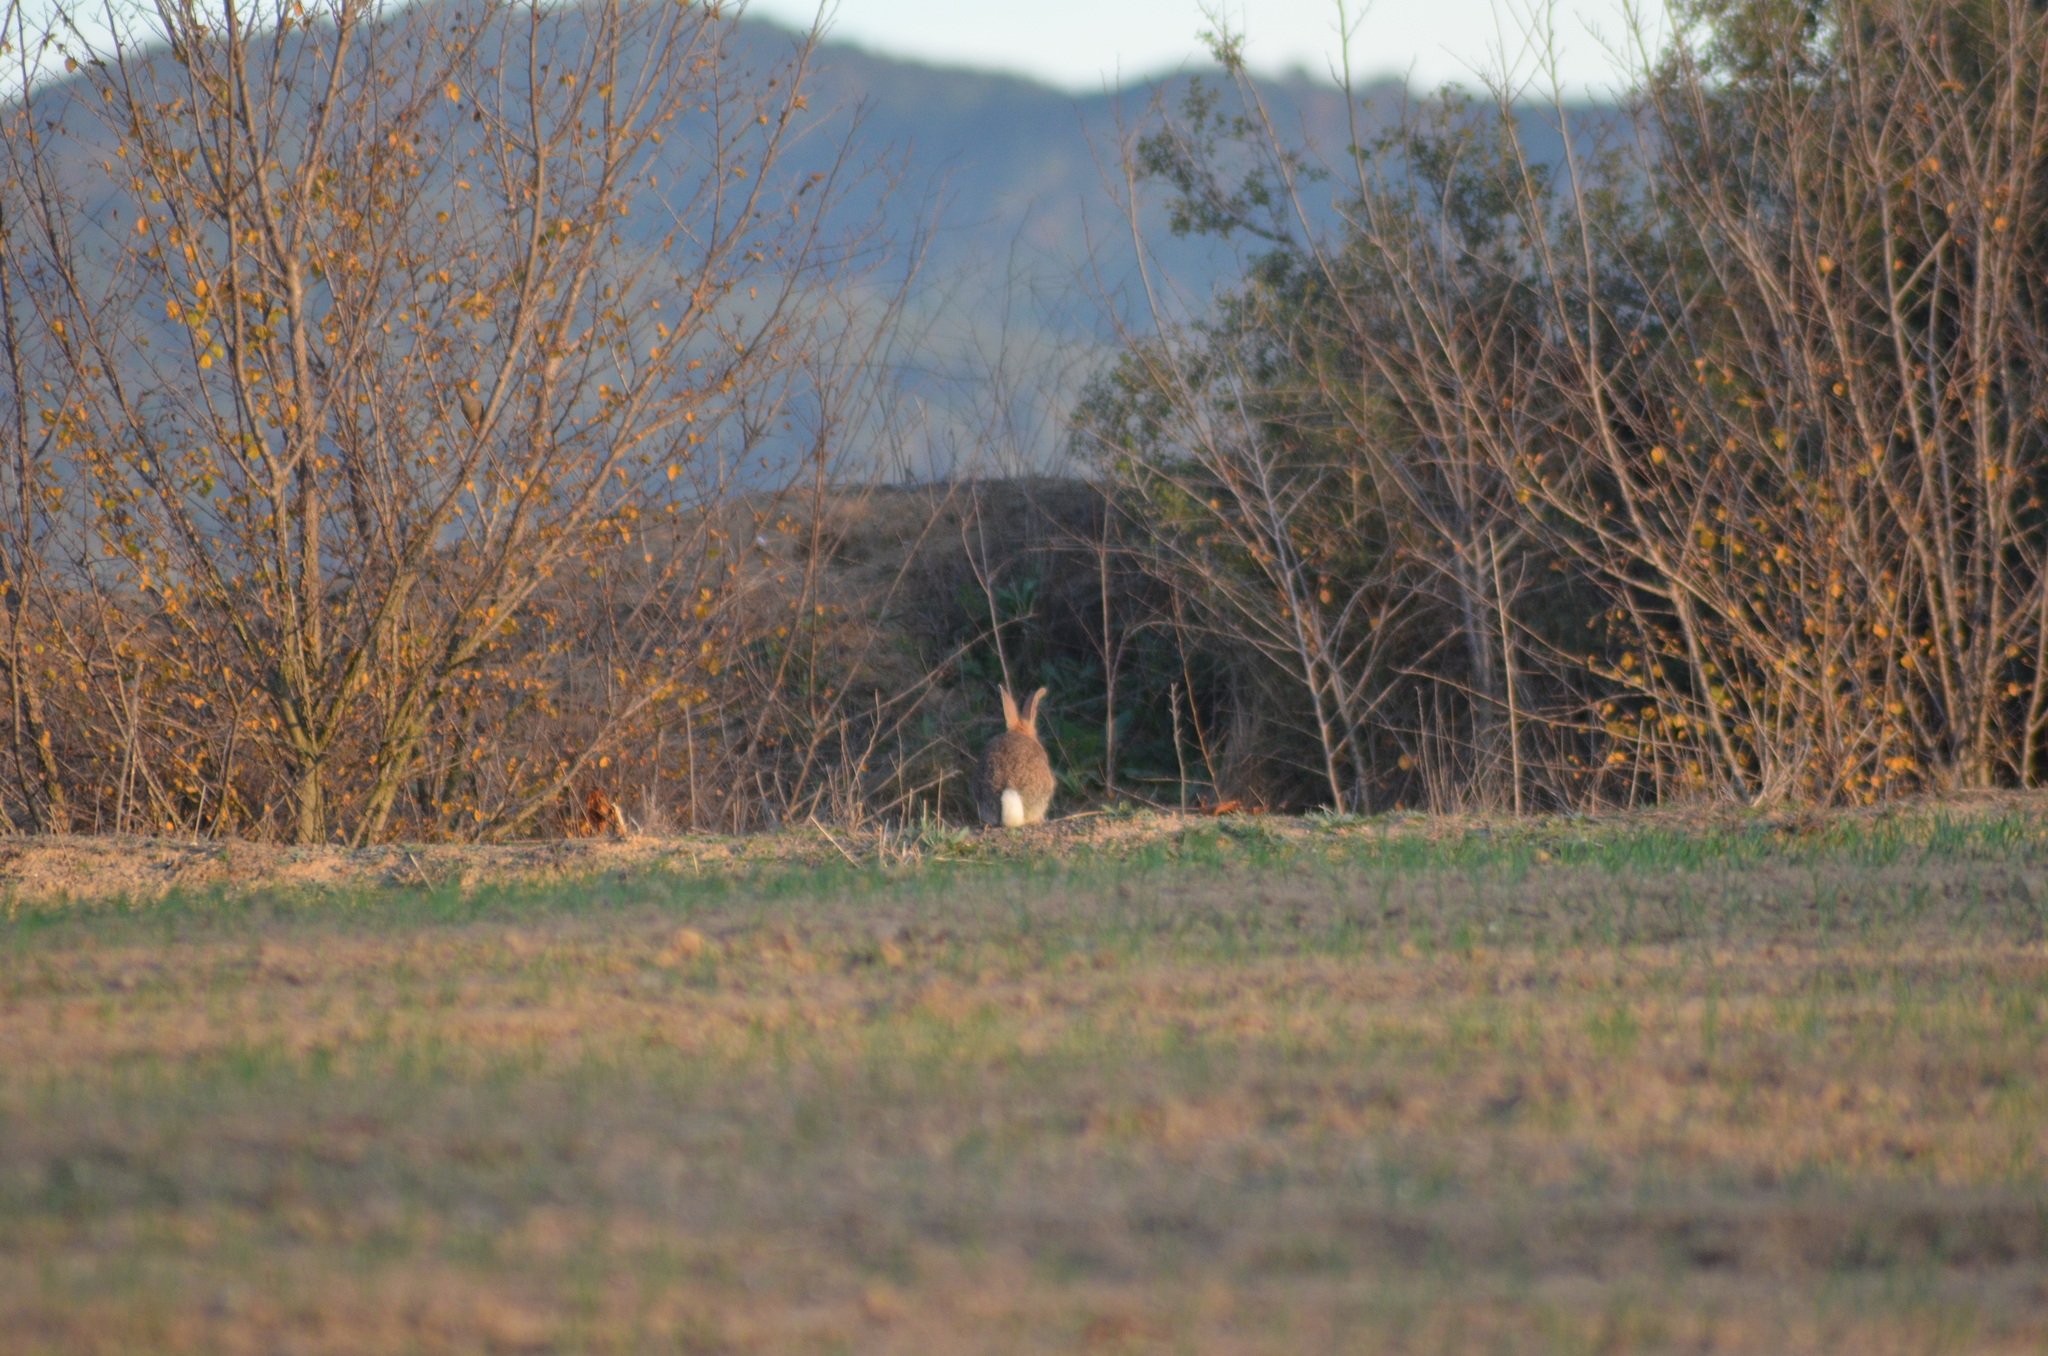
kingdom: Animalia
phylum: Chordata
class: Mammalia
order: Lagomorpha
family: Leporidae
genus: Oryctolagus
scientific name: Oryctolagus cuniculus
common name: European rabbit
